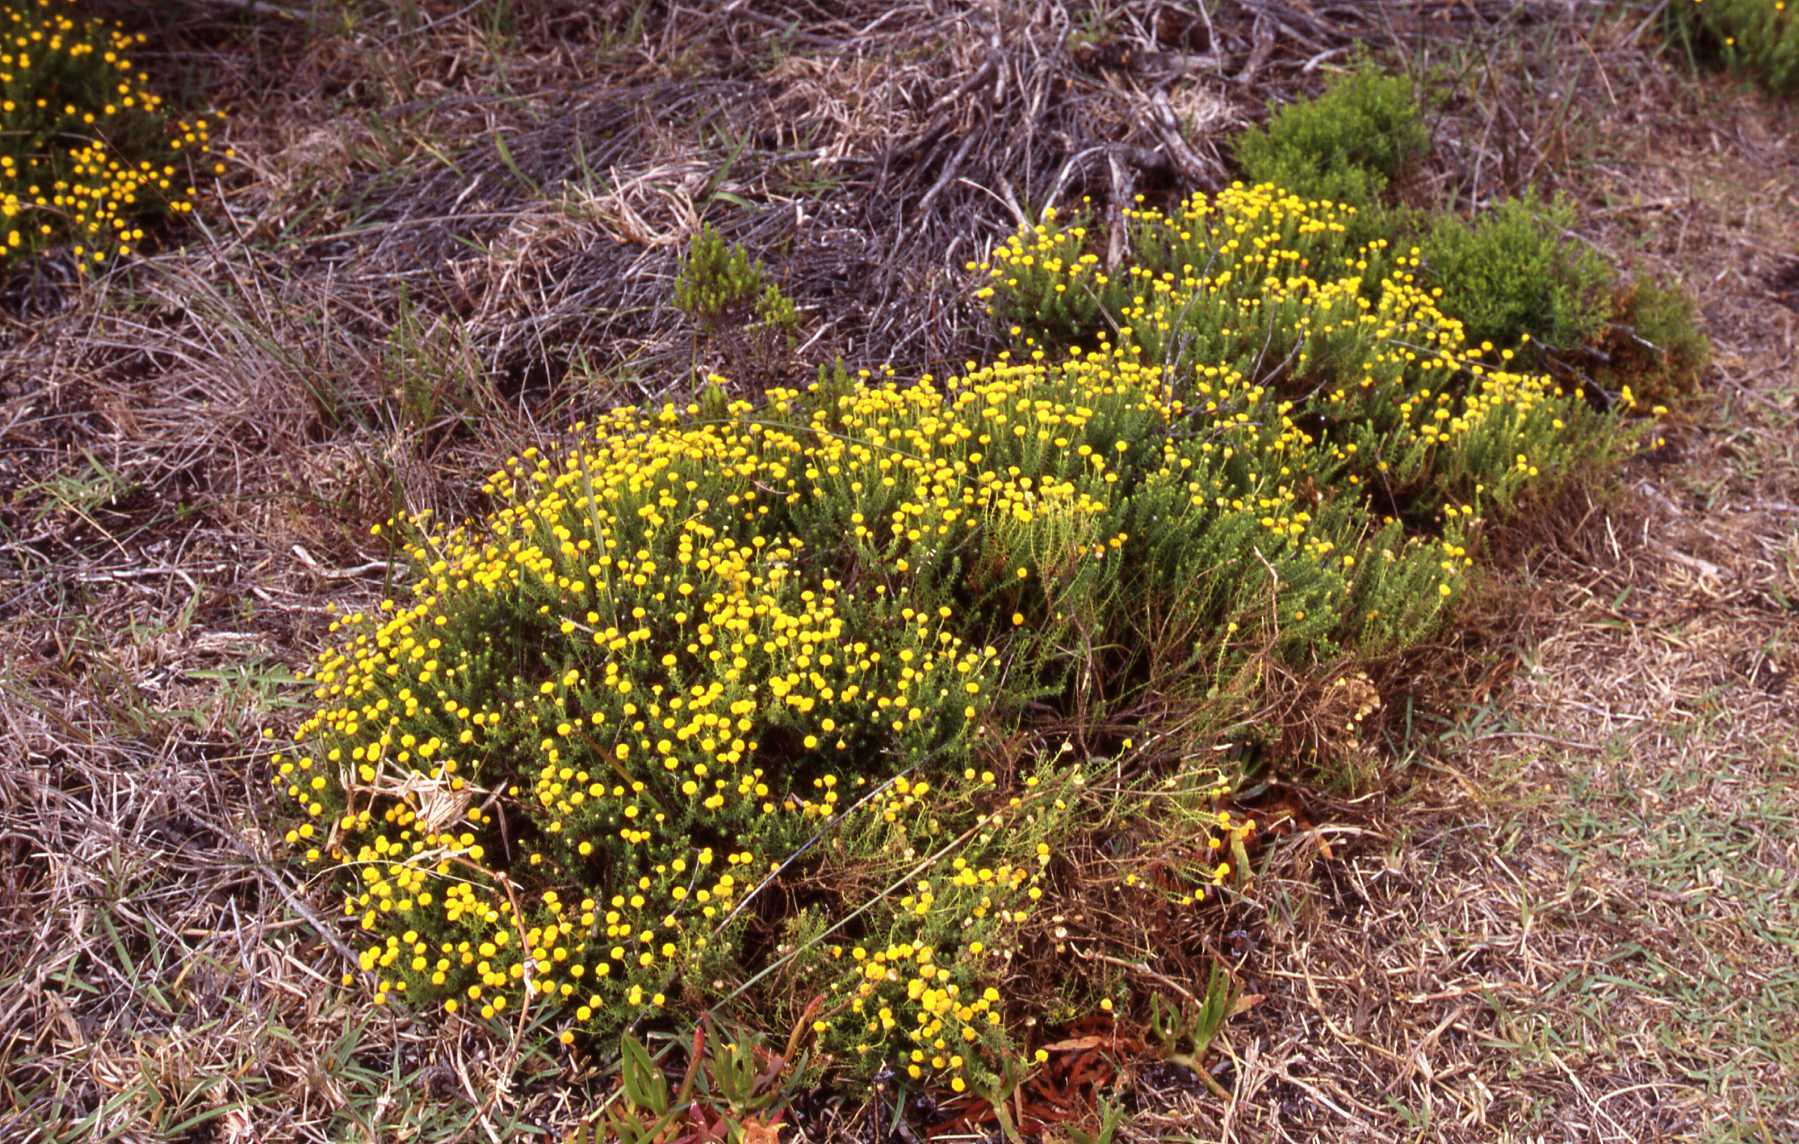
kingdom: Plantae
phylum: Tracheophyta
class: Magnoliopsida
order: Asterales
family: Asteraceae
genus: Chrysocoma
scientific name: Chrysocoma cernua
